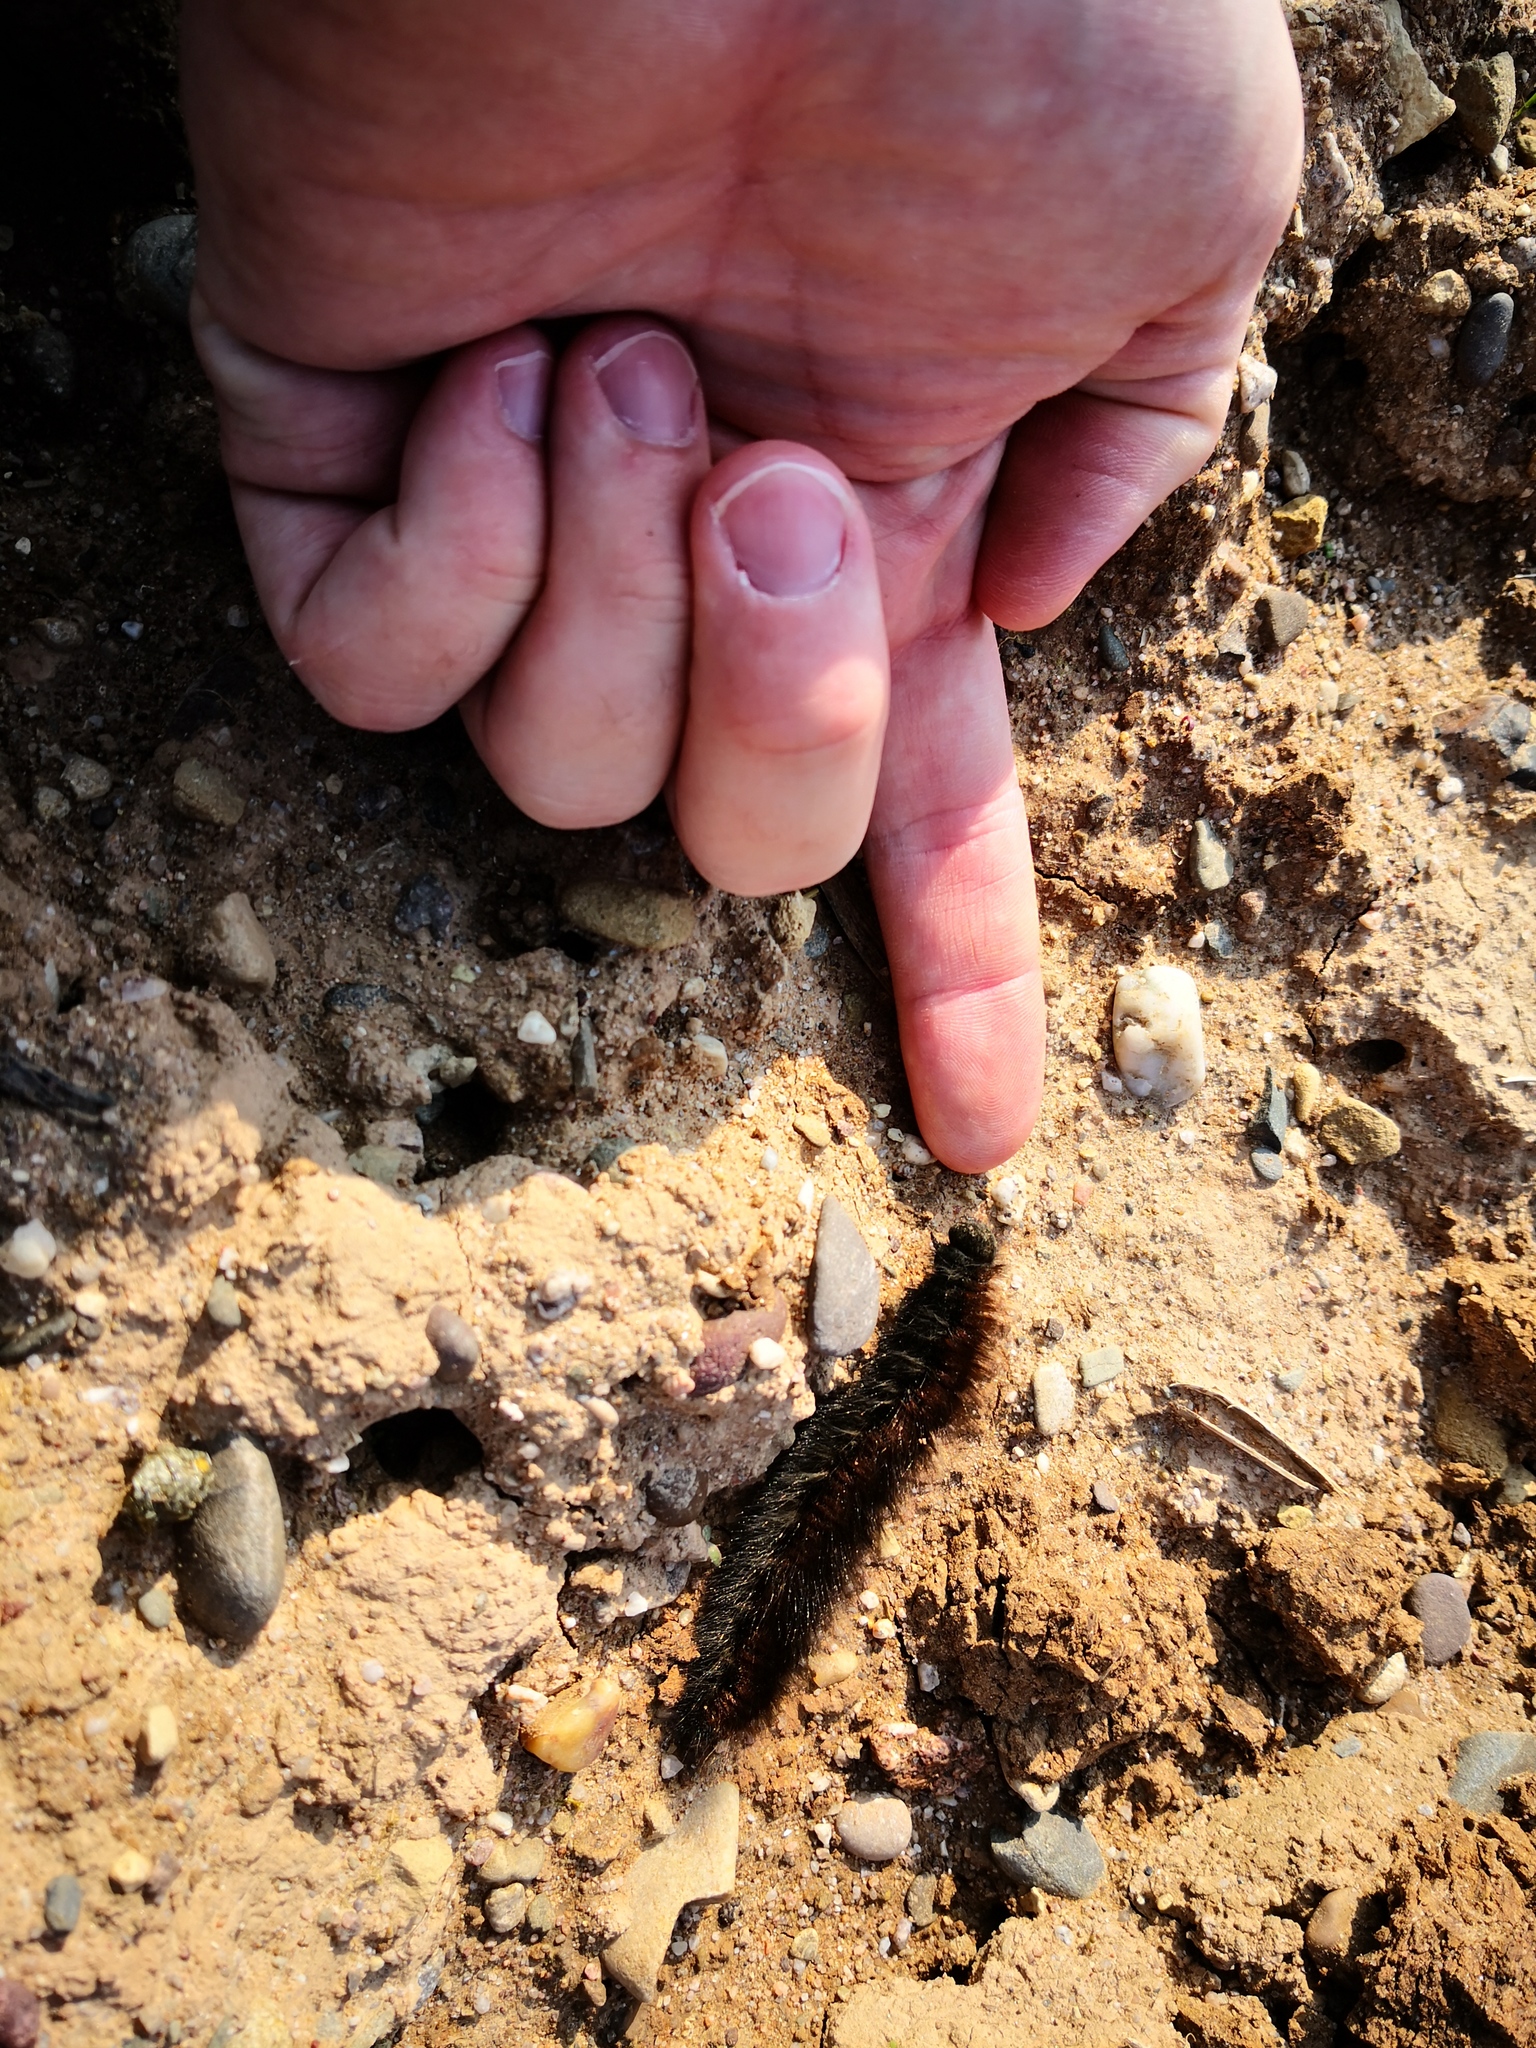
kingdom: Animalia
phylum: Arthropoda
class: Insecta
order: Lepidoptera
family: Lasiocampidae
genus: Macrothylacia
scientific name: Macrothylacia rubi
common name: Fox moth
